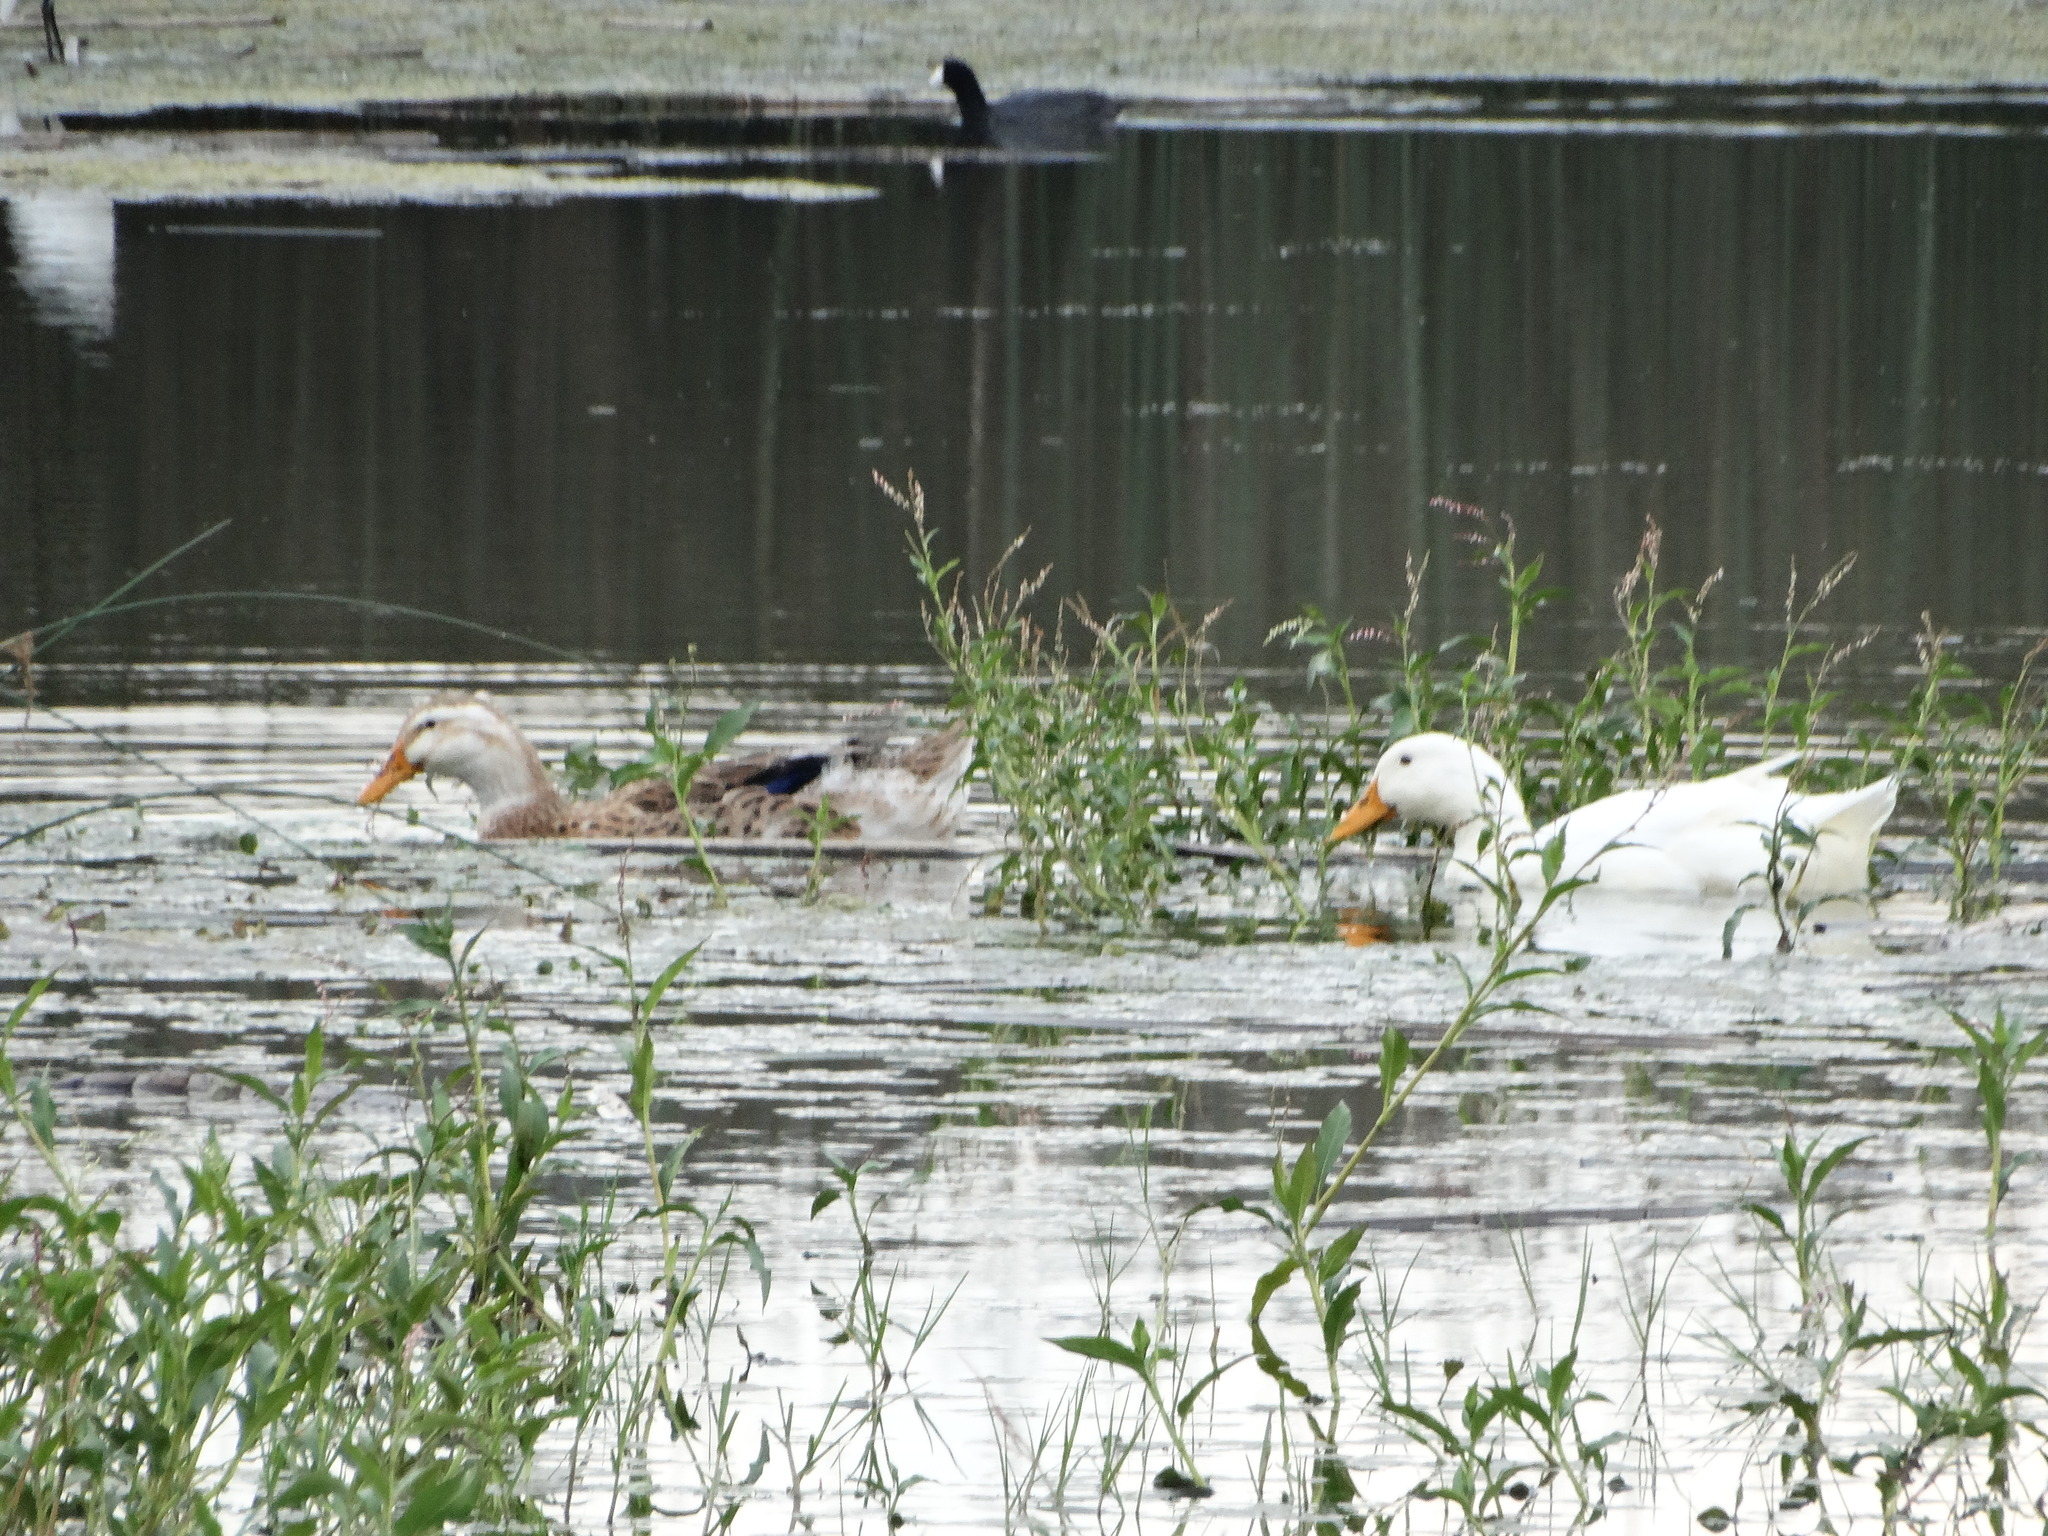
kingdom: Animalia
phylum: Chordata
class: Aves
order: Anseriformes
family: Anatidae
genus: Anas
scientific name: Anas platyrhynchos
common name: Mallard
